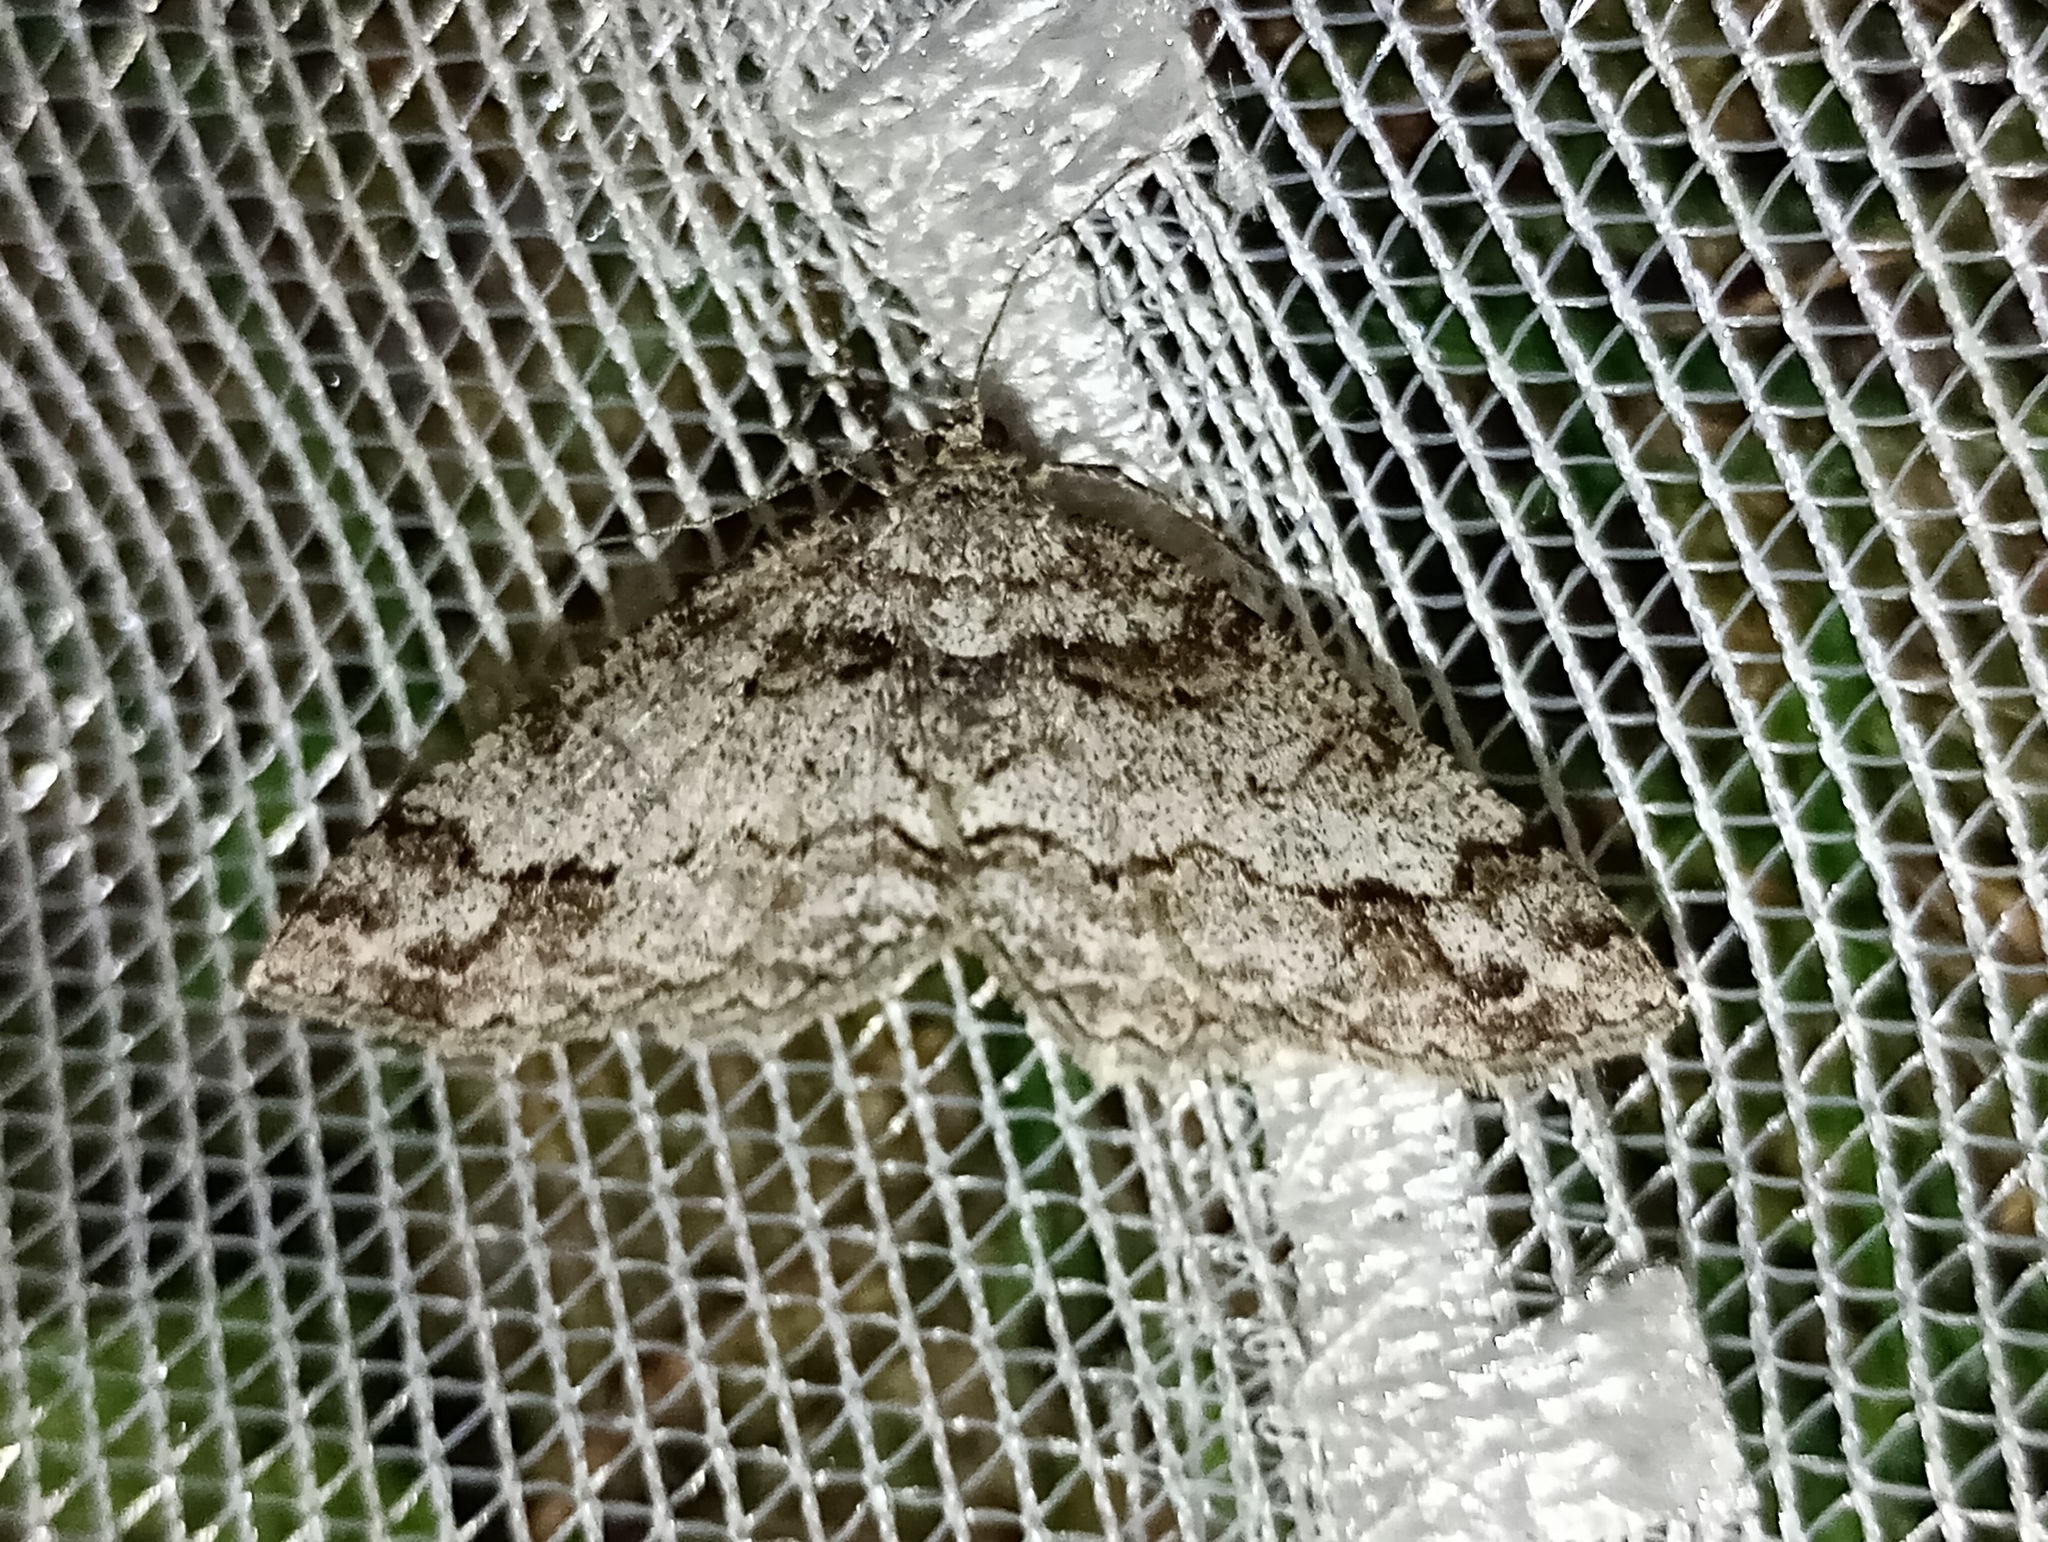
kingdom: Animalia
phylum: Arthropoda
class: Insecta
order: Lepidoptera
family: Geometridae
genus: Paradarisa
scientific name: Paradarisa consonaria
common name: Square spot
